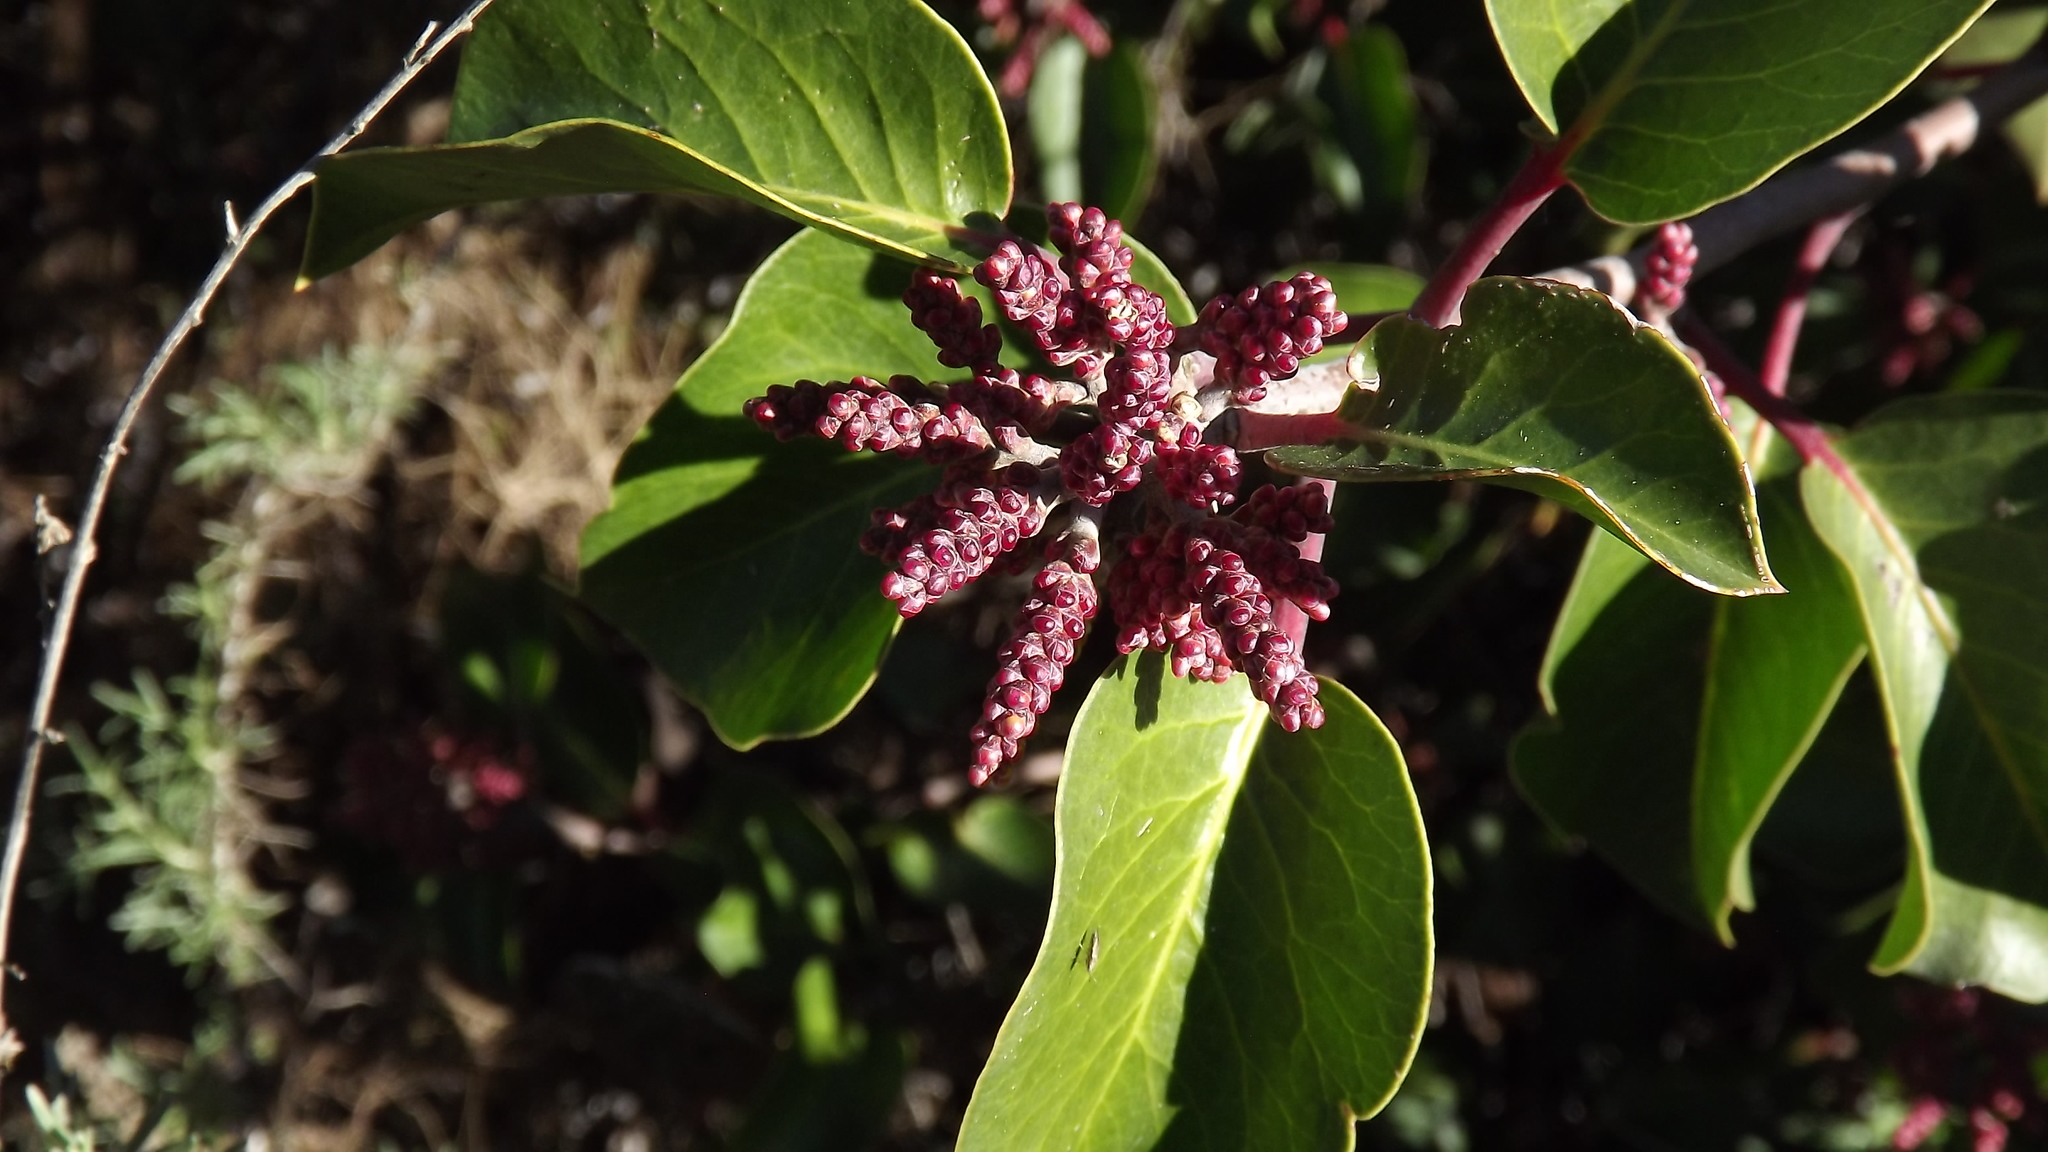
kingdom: Plantae
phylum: Tracheophyta
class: Magnoliopsida
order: Sapindales
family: Anacardiaceae
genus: Rhus
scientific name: Rhus ovata
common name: Sugar sumac
